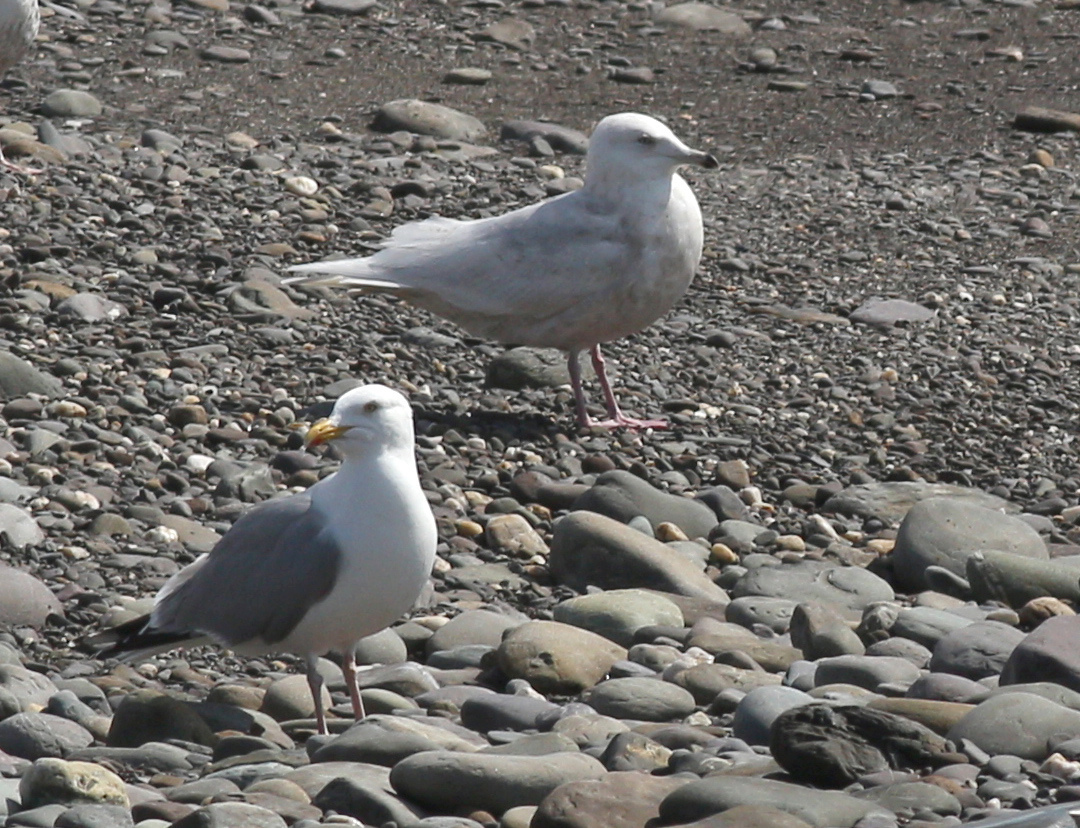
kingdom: Animalia
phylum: Chordata
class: Aves
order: Charadriiformes
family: Laridae
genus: Larus
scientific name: Larus glaucoides
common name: Iceland gull
